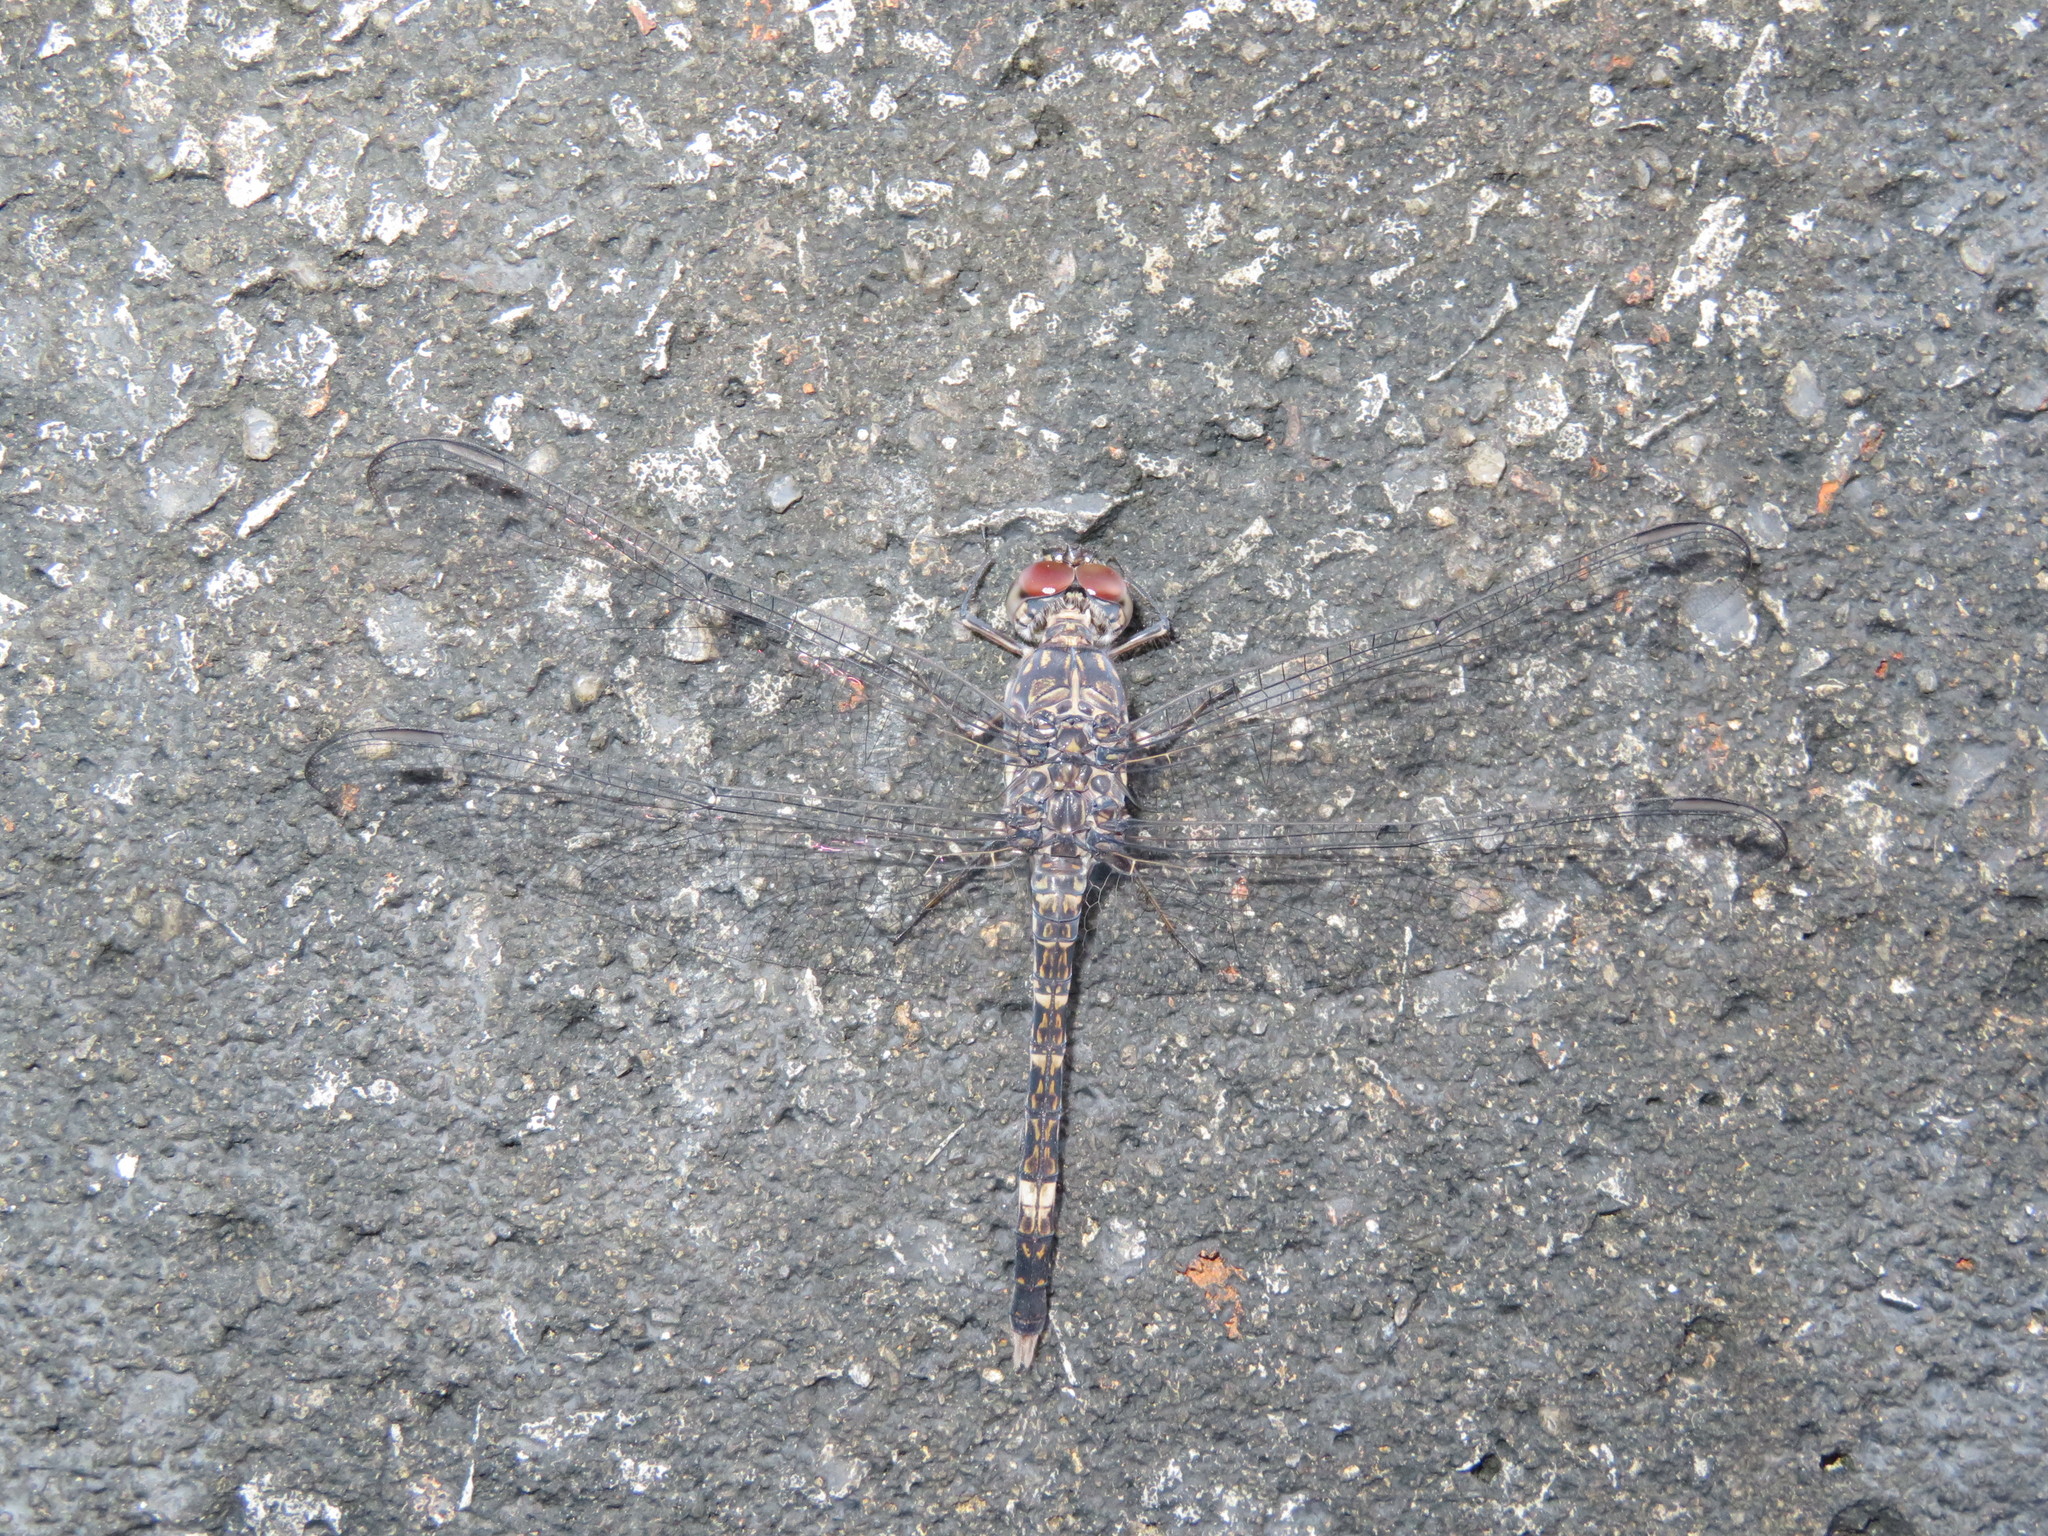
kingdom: Animalia
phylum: Arthropoda
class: Insecta
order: Odonata
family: Libellulidae
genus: Bradinopyga
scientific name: Bradinopyga cornuta
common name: Flecked wall-skimmer
